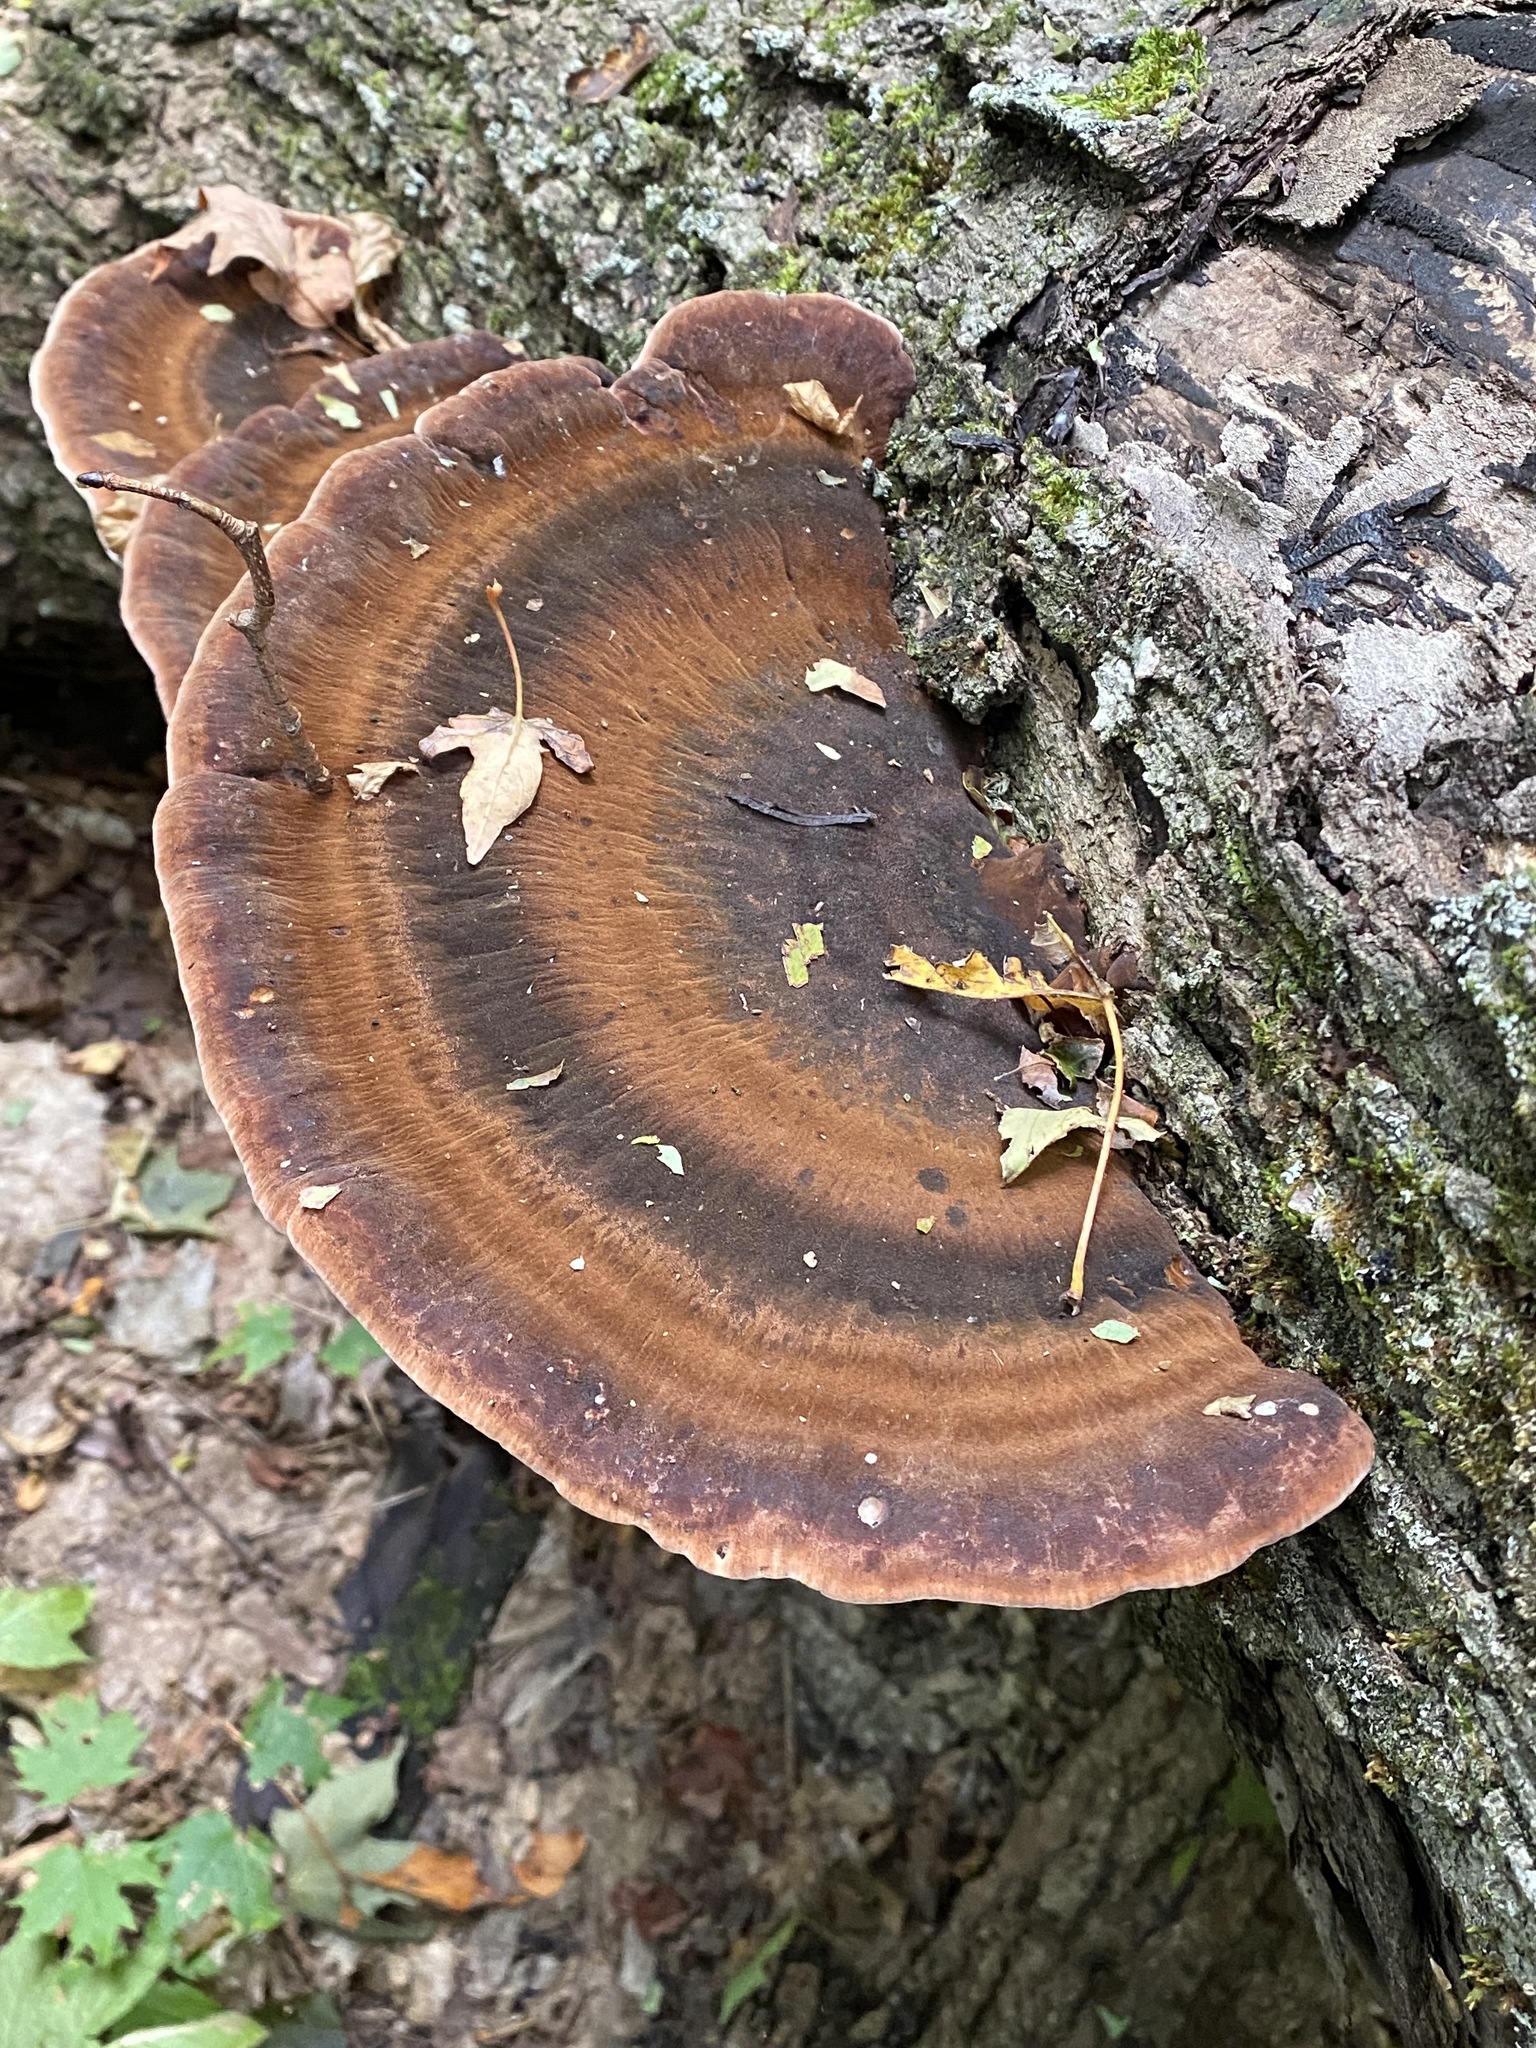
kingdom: Fungi
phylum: Basidiomycota
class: Agaricomycetes
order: Polyporales
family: Ischnodermataceae
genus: Ischnoderma
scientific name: Ischnoderma resinosum
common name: Resinous polypore
